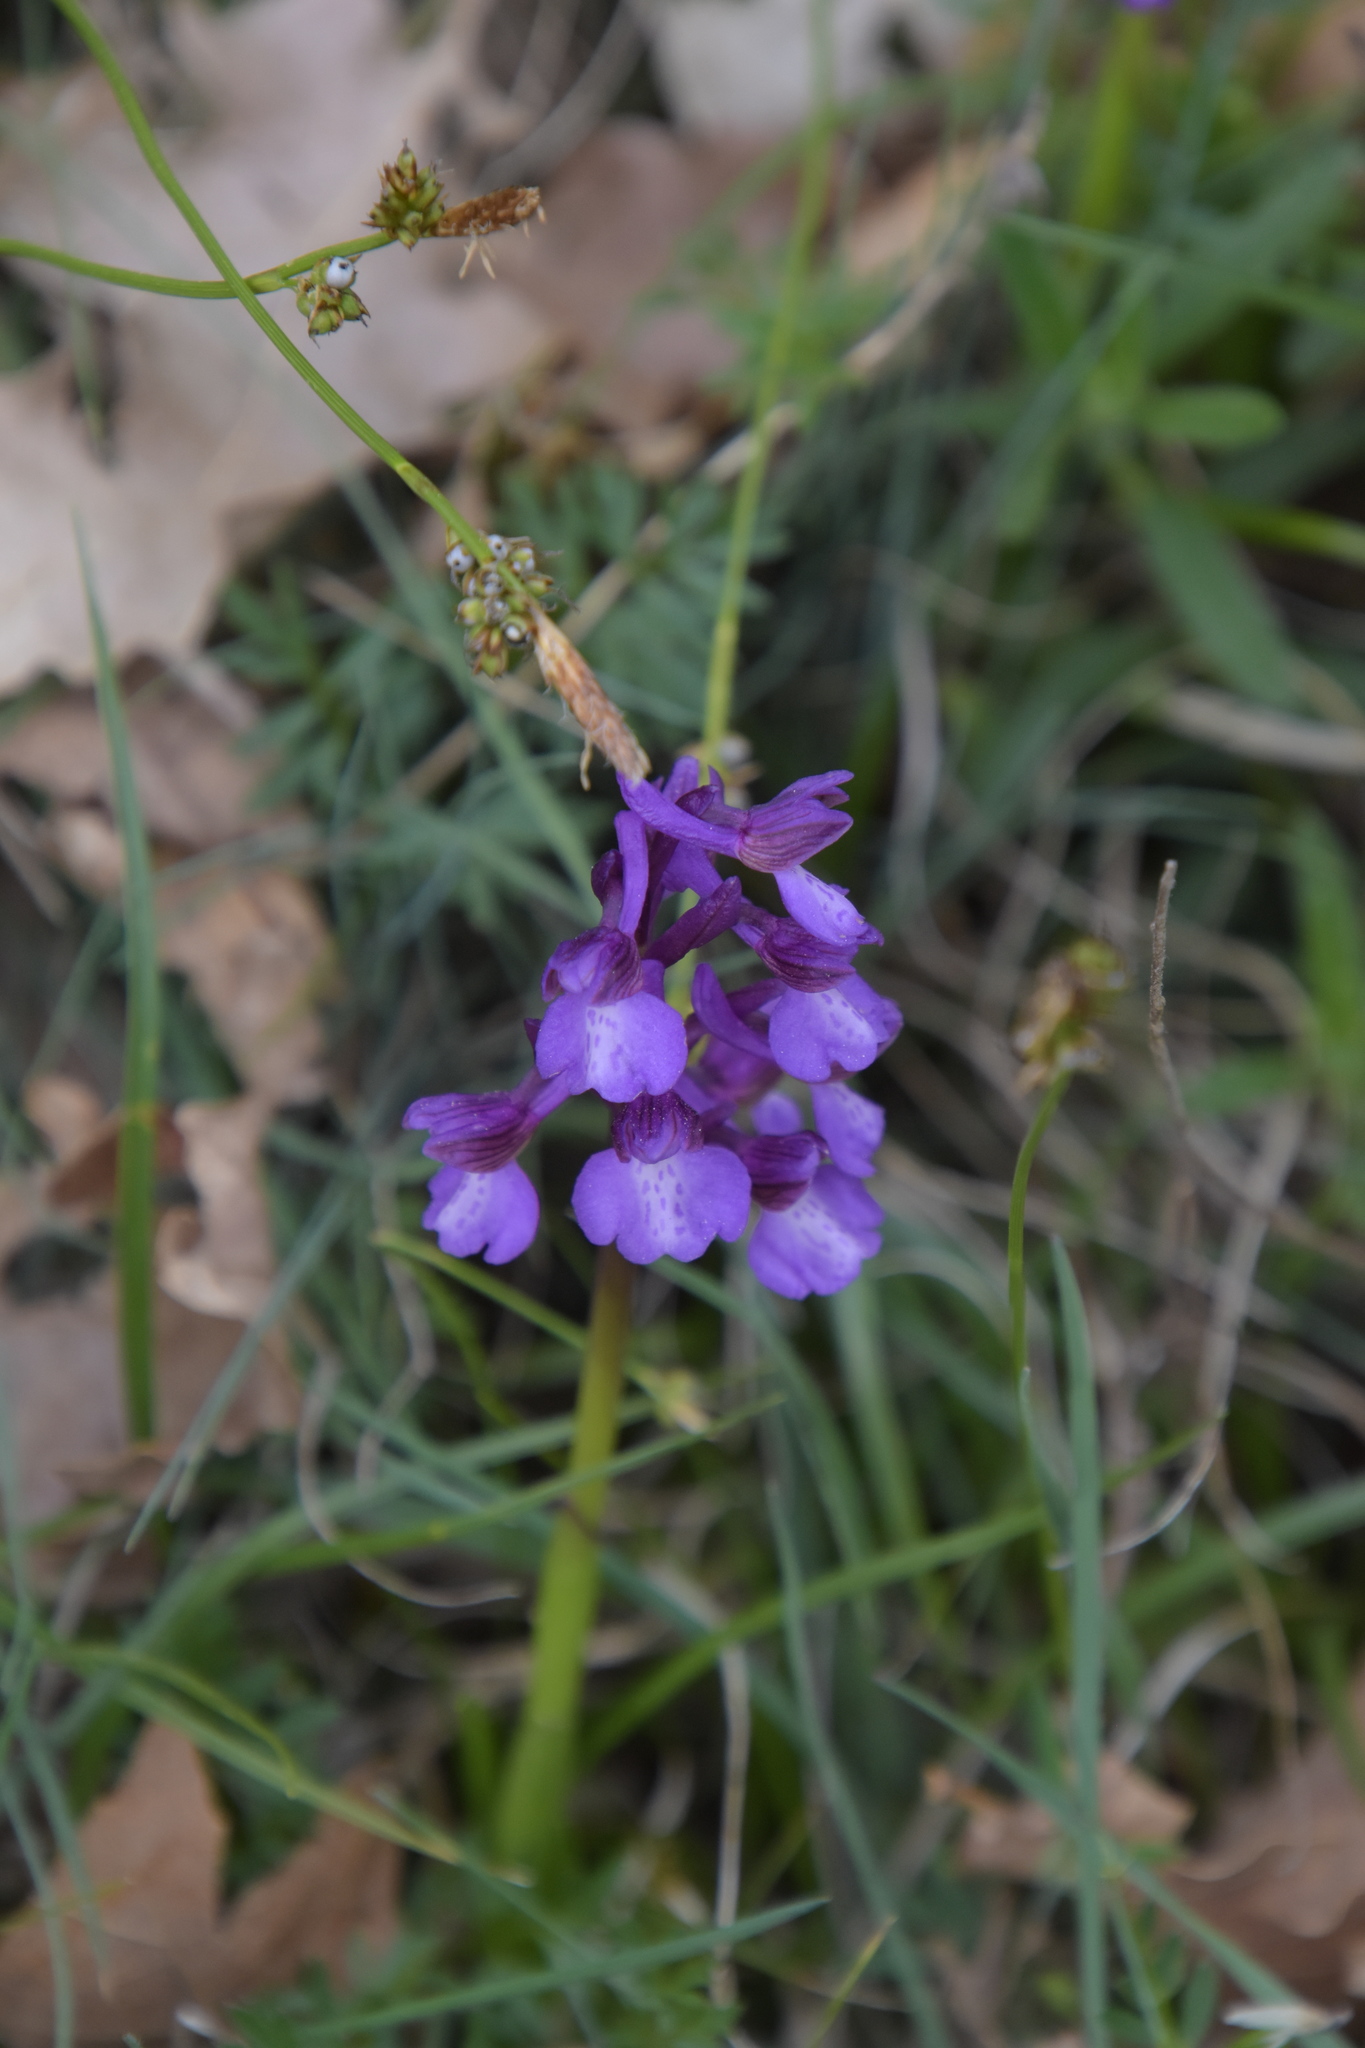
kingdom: Plantae
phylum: Tracheophyta
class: Liliopsida
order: Asparagales
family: Orchidaceae
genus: Anacamptis
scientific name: Anacamptis morio
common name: Green-winged orchid
